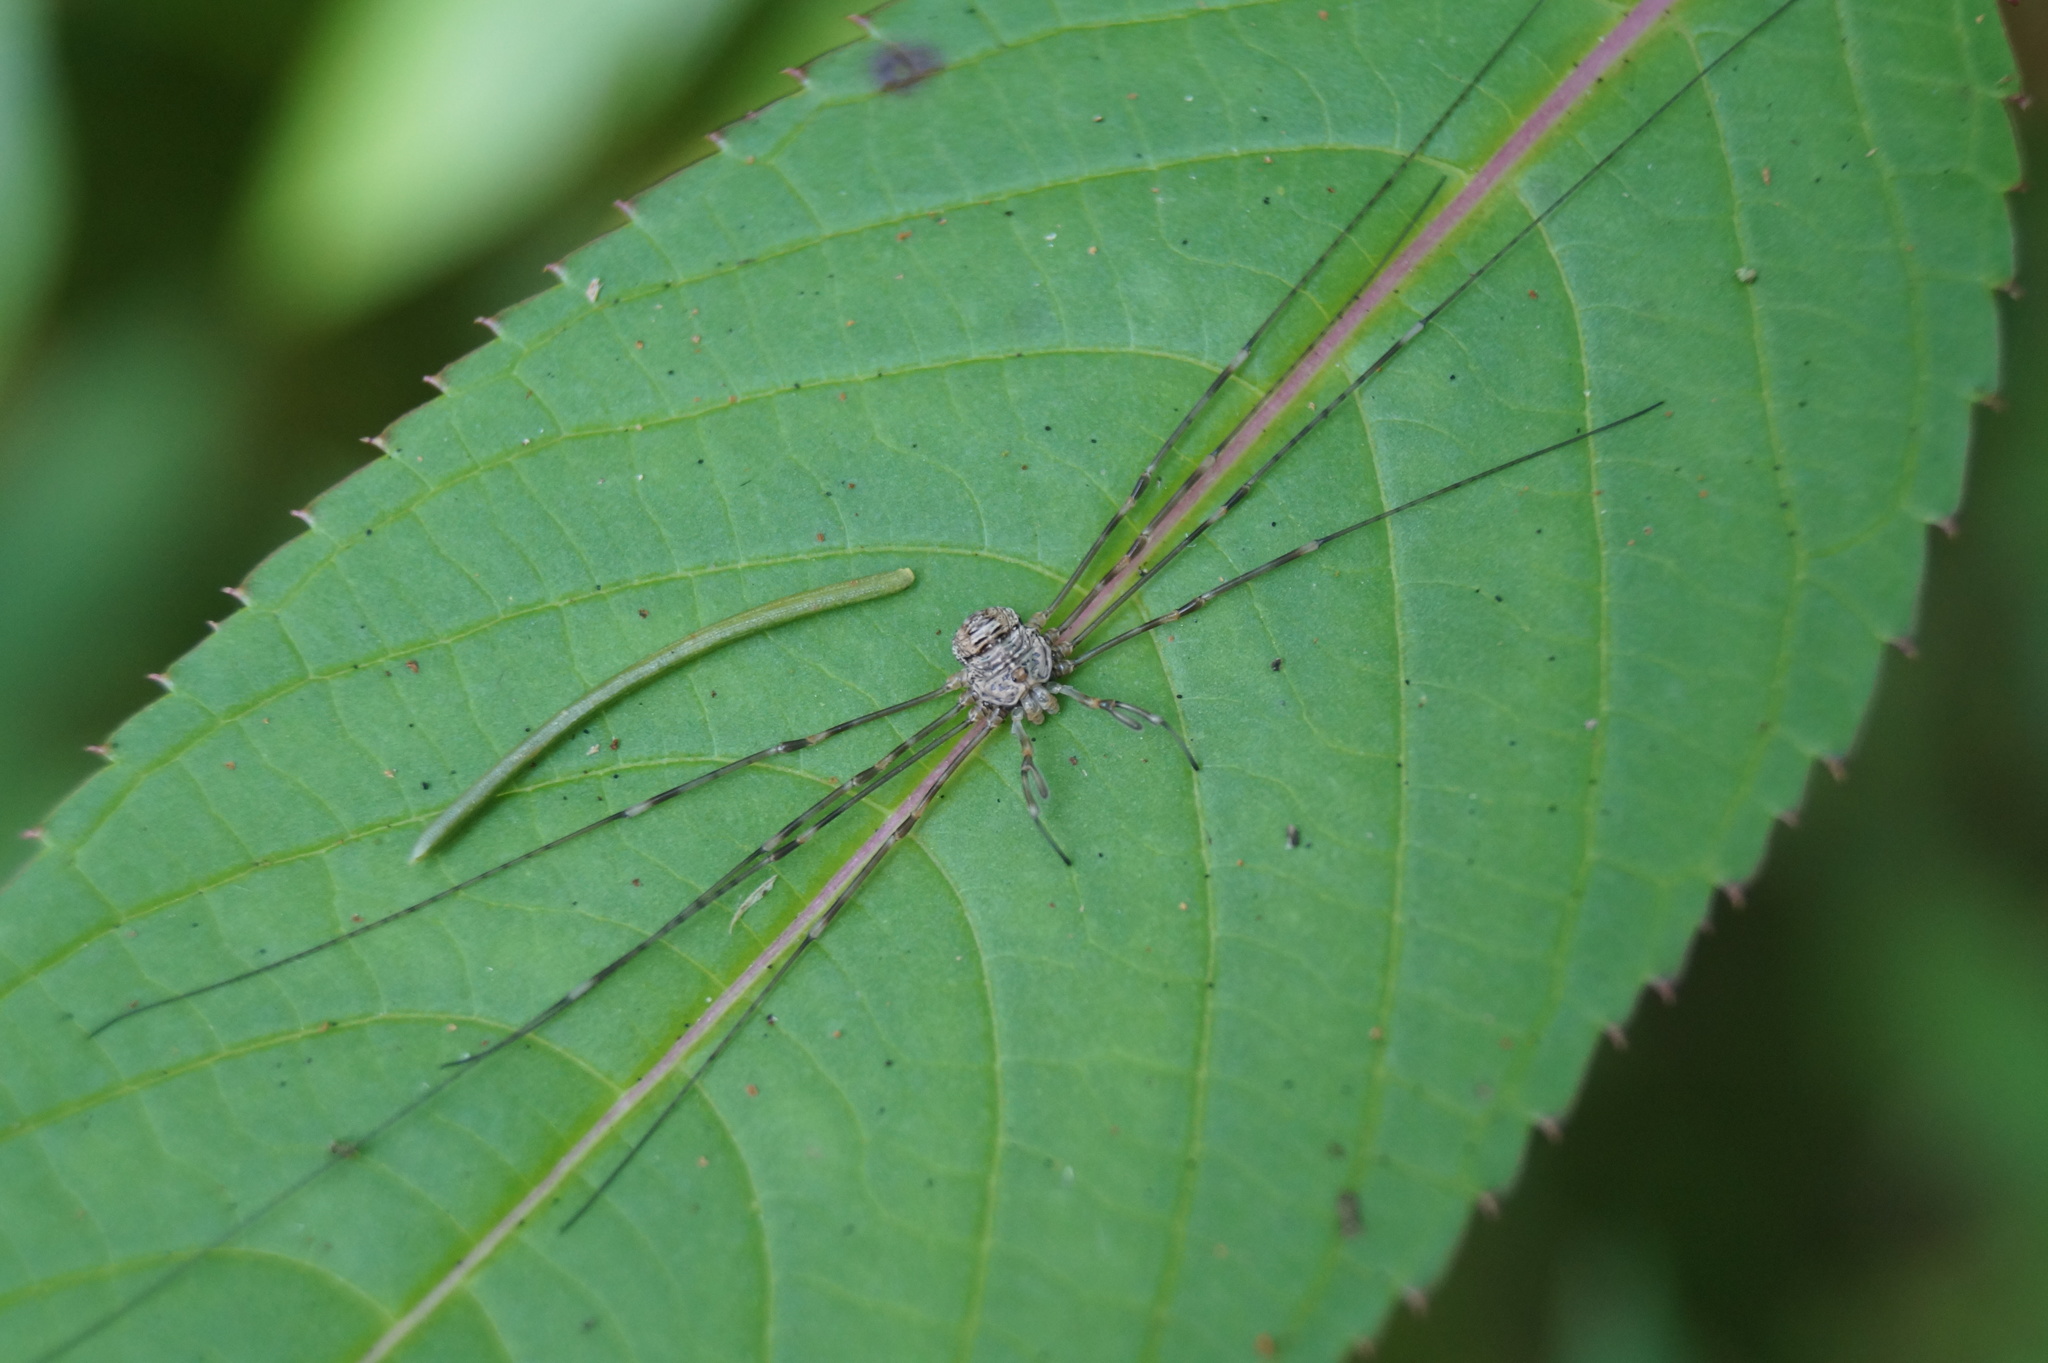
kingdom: Animalia
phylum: Arthropoda
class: Arachnida
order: Opiliones
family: Phalangiidae
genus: Dicranopalpus
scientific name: Dicranopalpus ramosus
